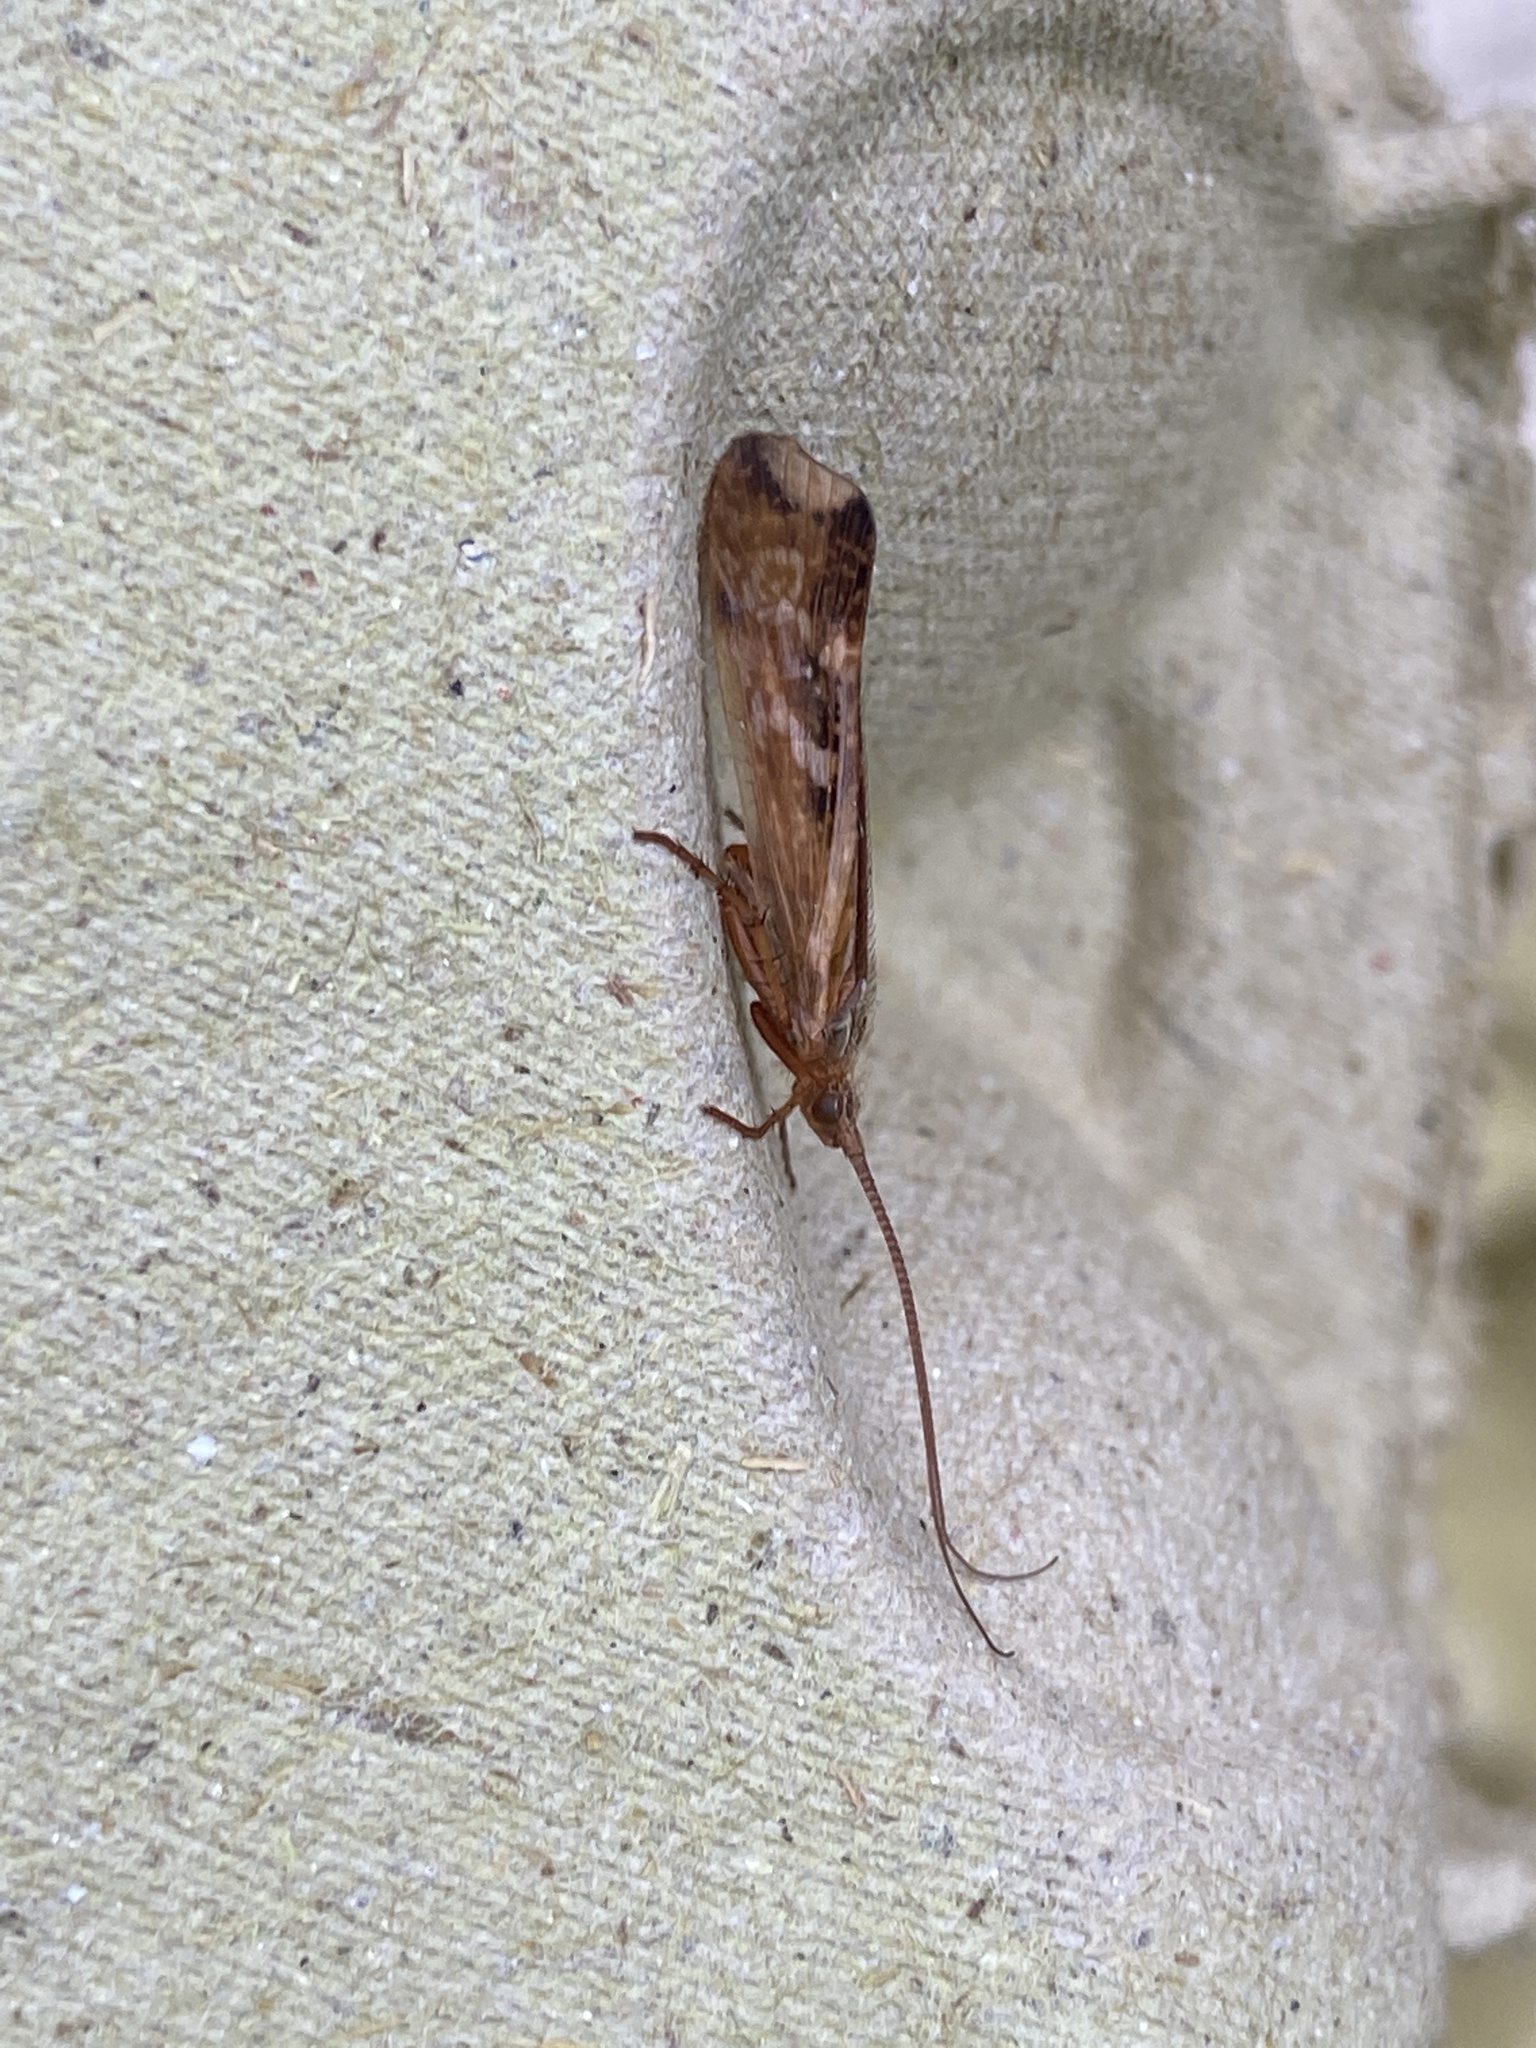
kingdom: Animalia
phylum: Arthropoda
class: Insecta
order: Trichoptera
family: Limnephilidae
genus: Limnephilus
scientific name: Limnephilus lunatus
